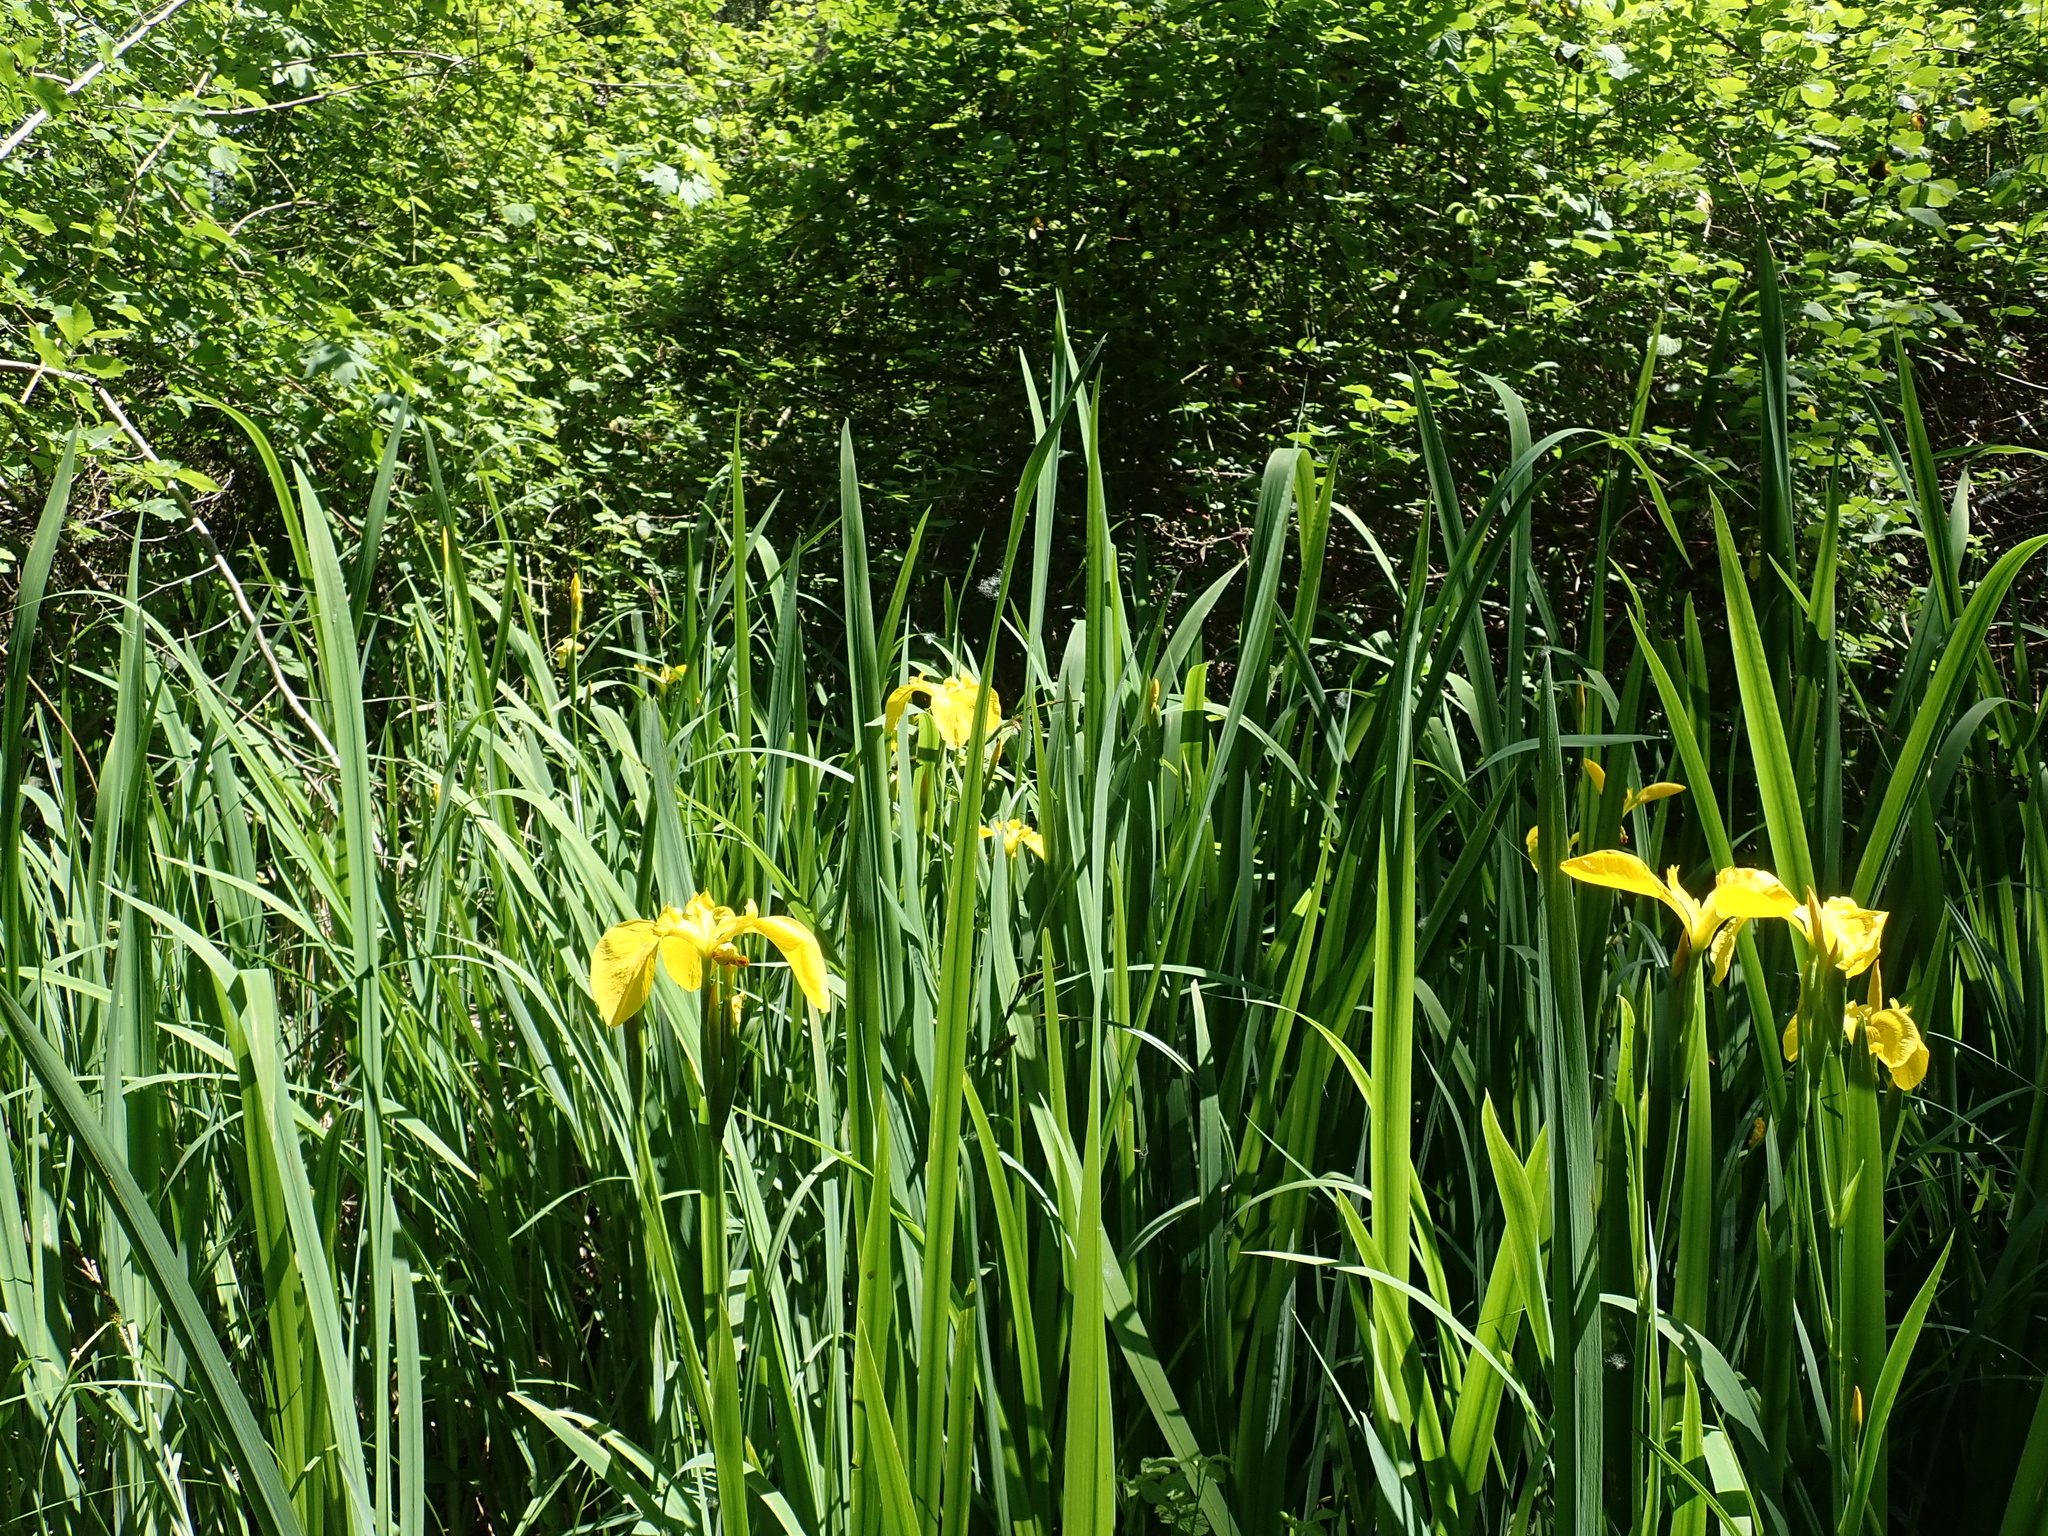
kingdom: Plantae
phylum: Tracheophyta
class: Liliopsida
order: Asparagales
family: Iridaceae
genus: Iris
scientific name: Iris pseudacorus
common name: Yellow flag
